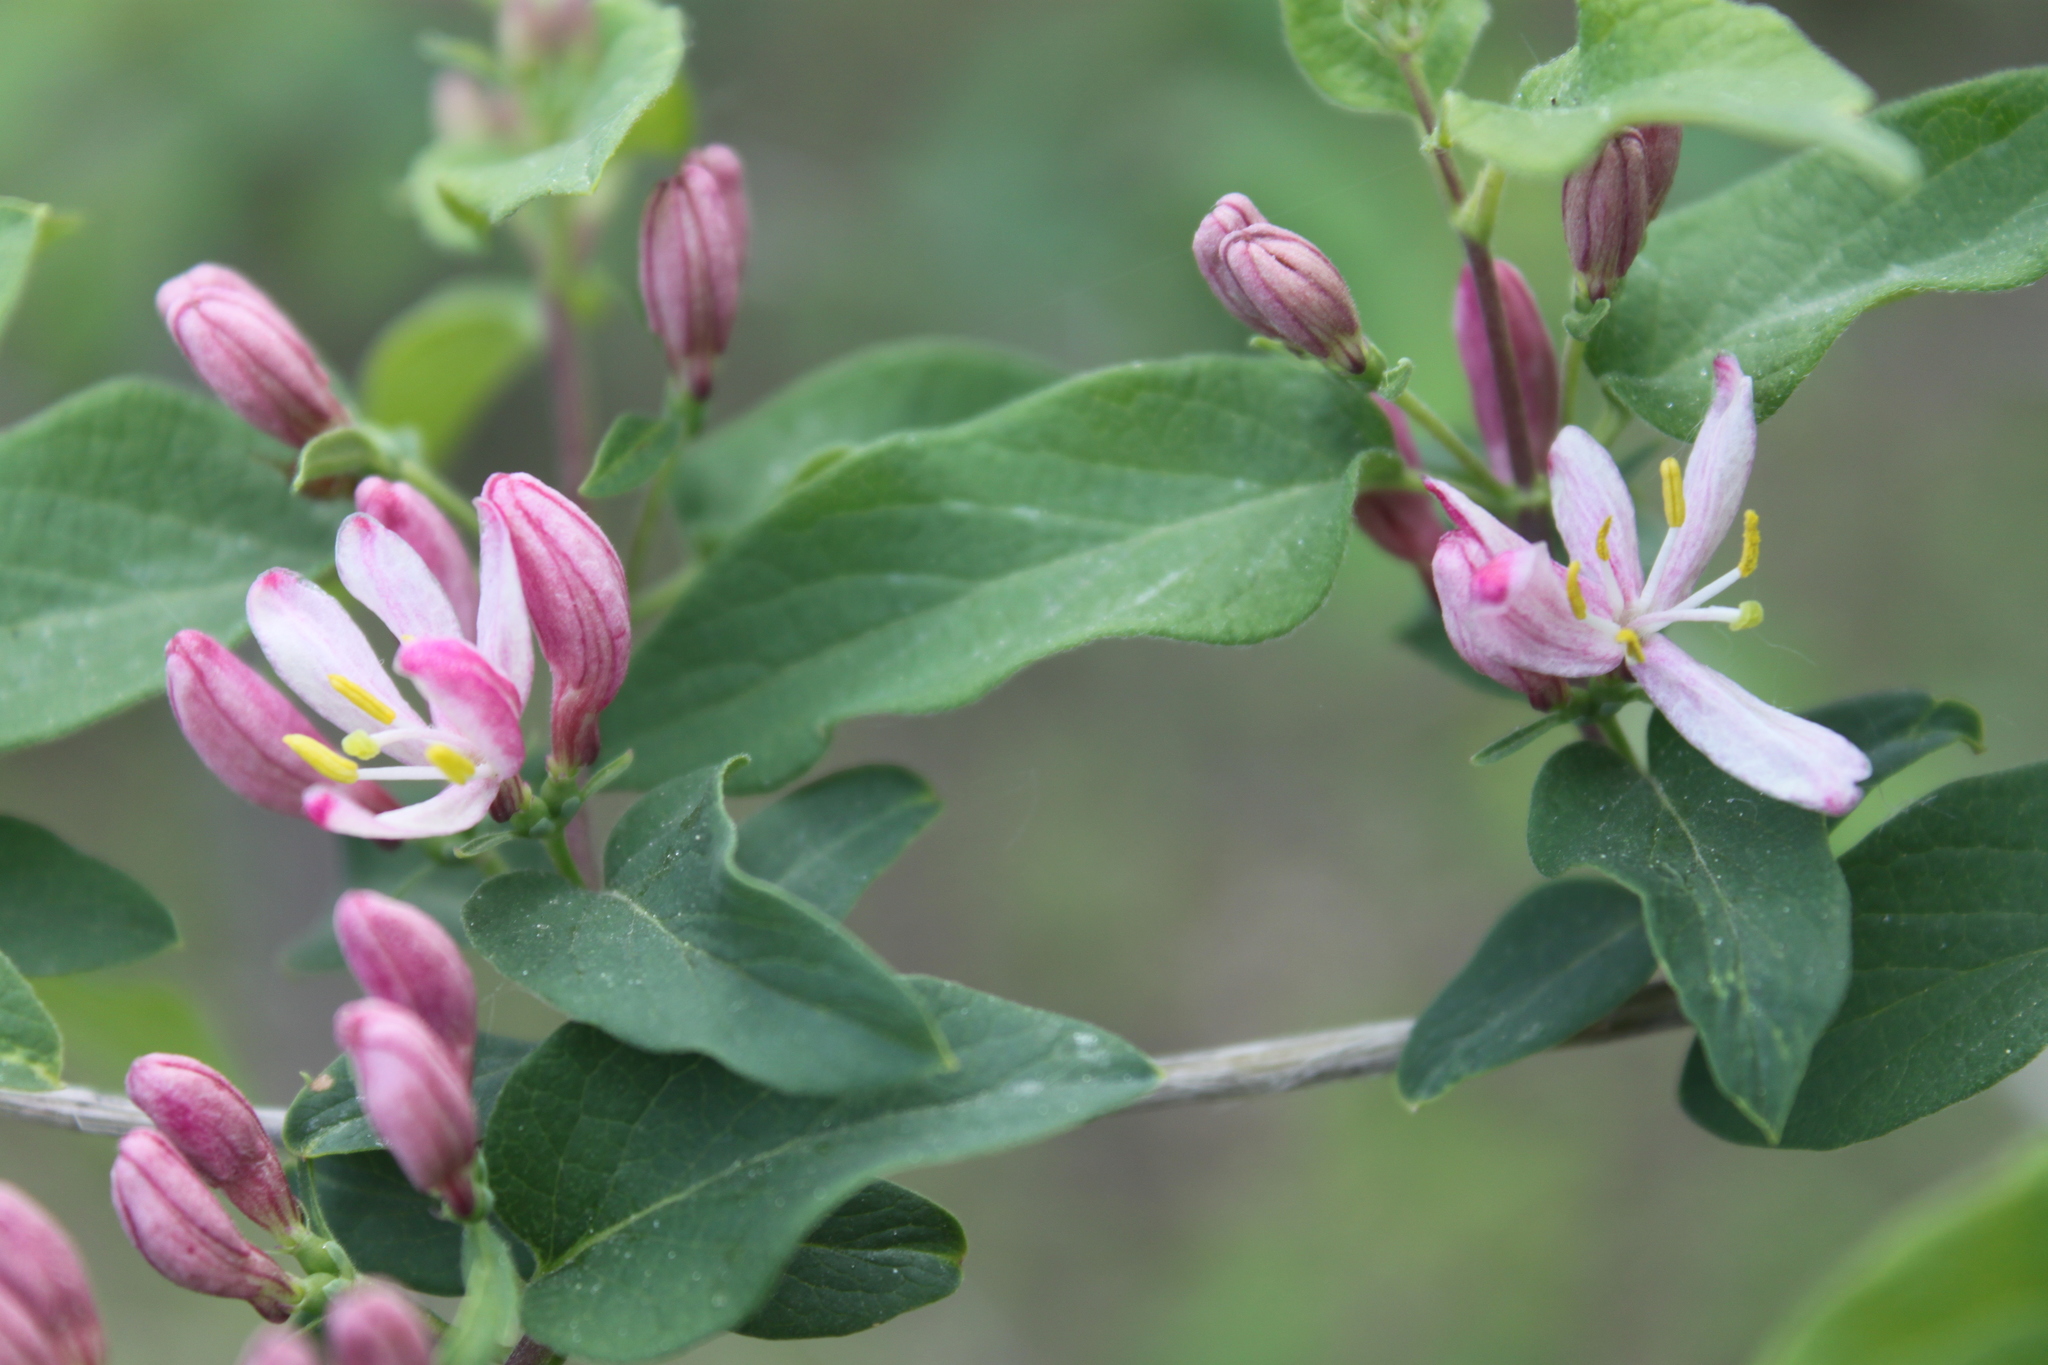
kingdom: Plantae
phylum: Tracheophyta
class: Magnoliopsida
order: Dipsacales
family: Caprifoliaceae
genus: Lonicera
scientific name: Lonicera bella
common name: Bell's honeysuckle
